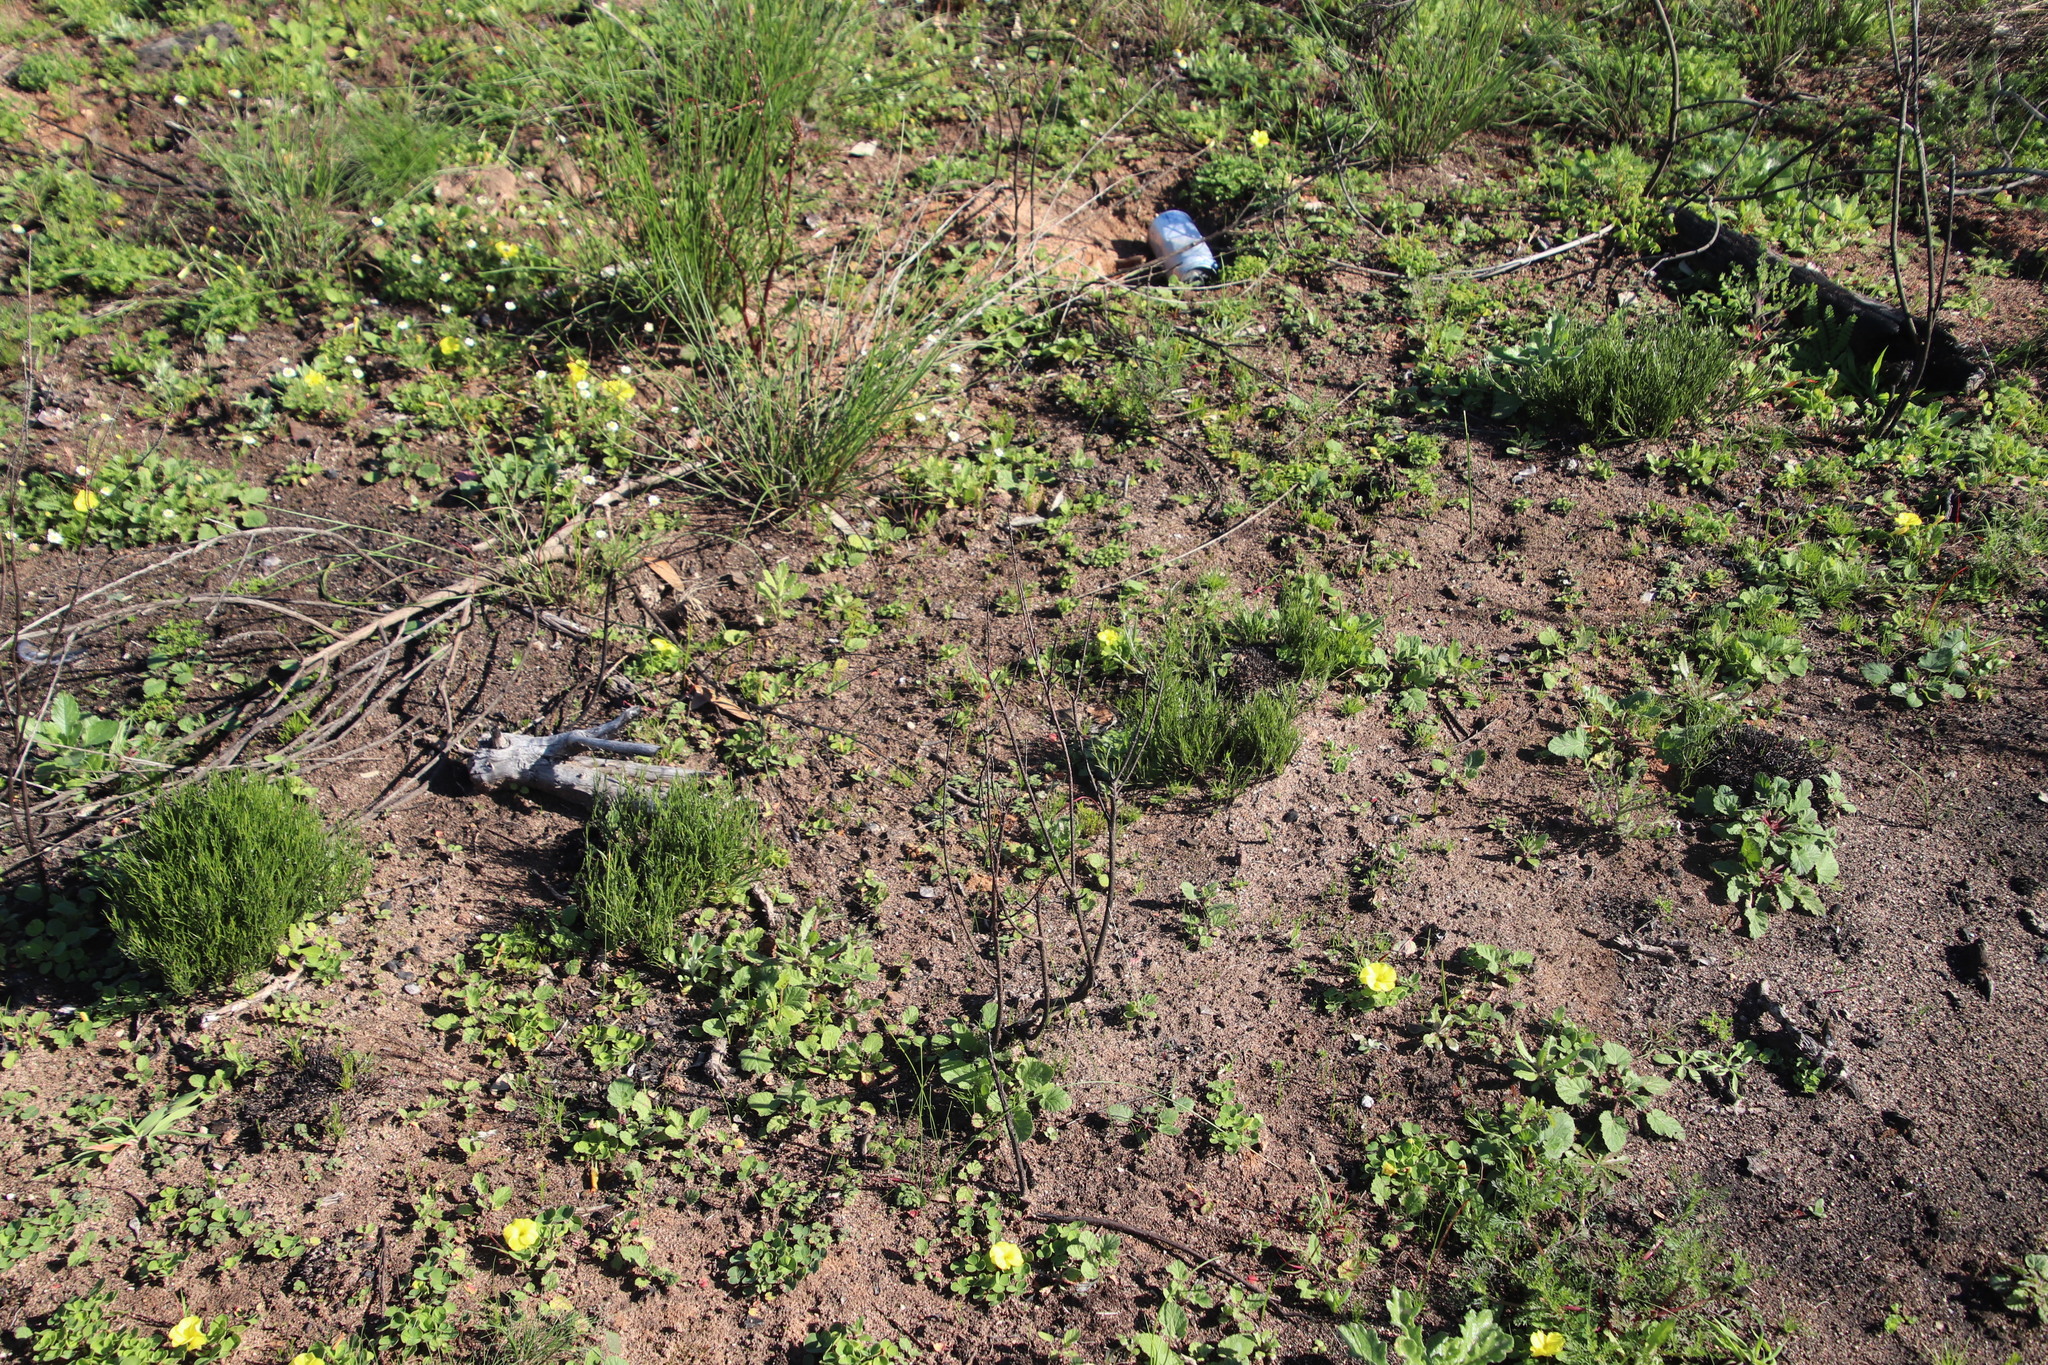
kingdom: Plantae
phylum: Tracheophyta
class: Liliopsida
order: Poales
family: Restionaceae
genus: Restio
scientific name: Restio capensis
